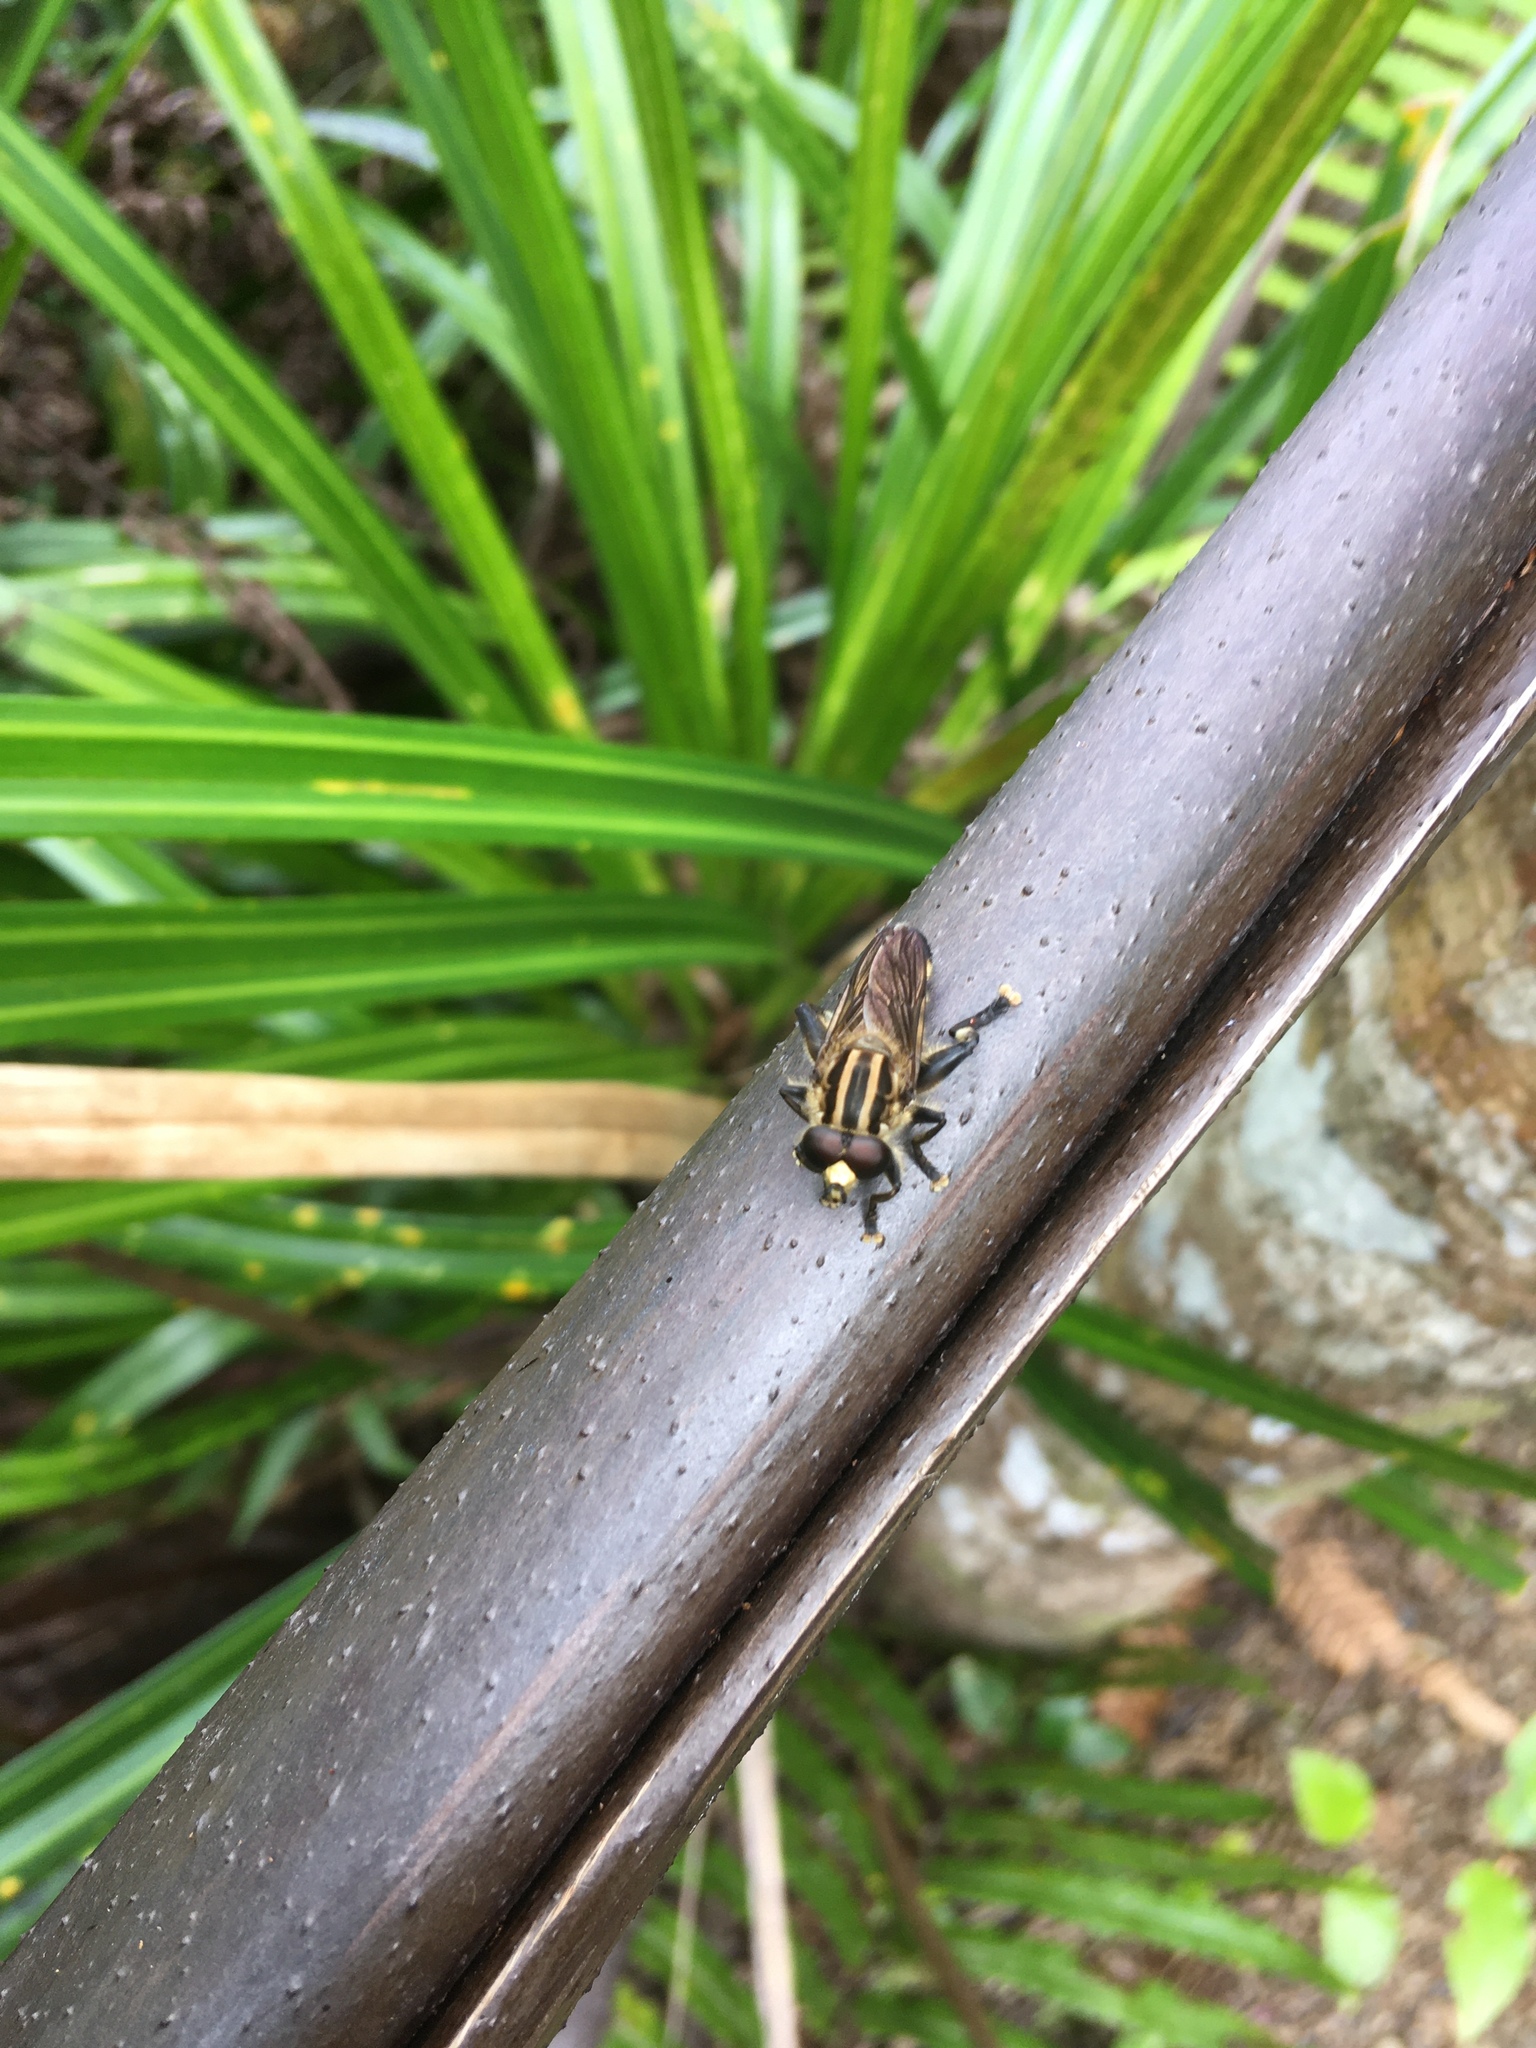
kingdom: Animalia
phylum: Arthropoda
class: Insecta
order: Diptera
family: Syrphidae
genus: Orthoprosopa
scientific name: Orthoprosopa bilineata
